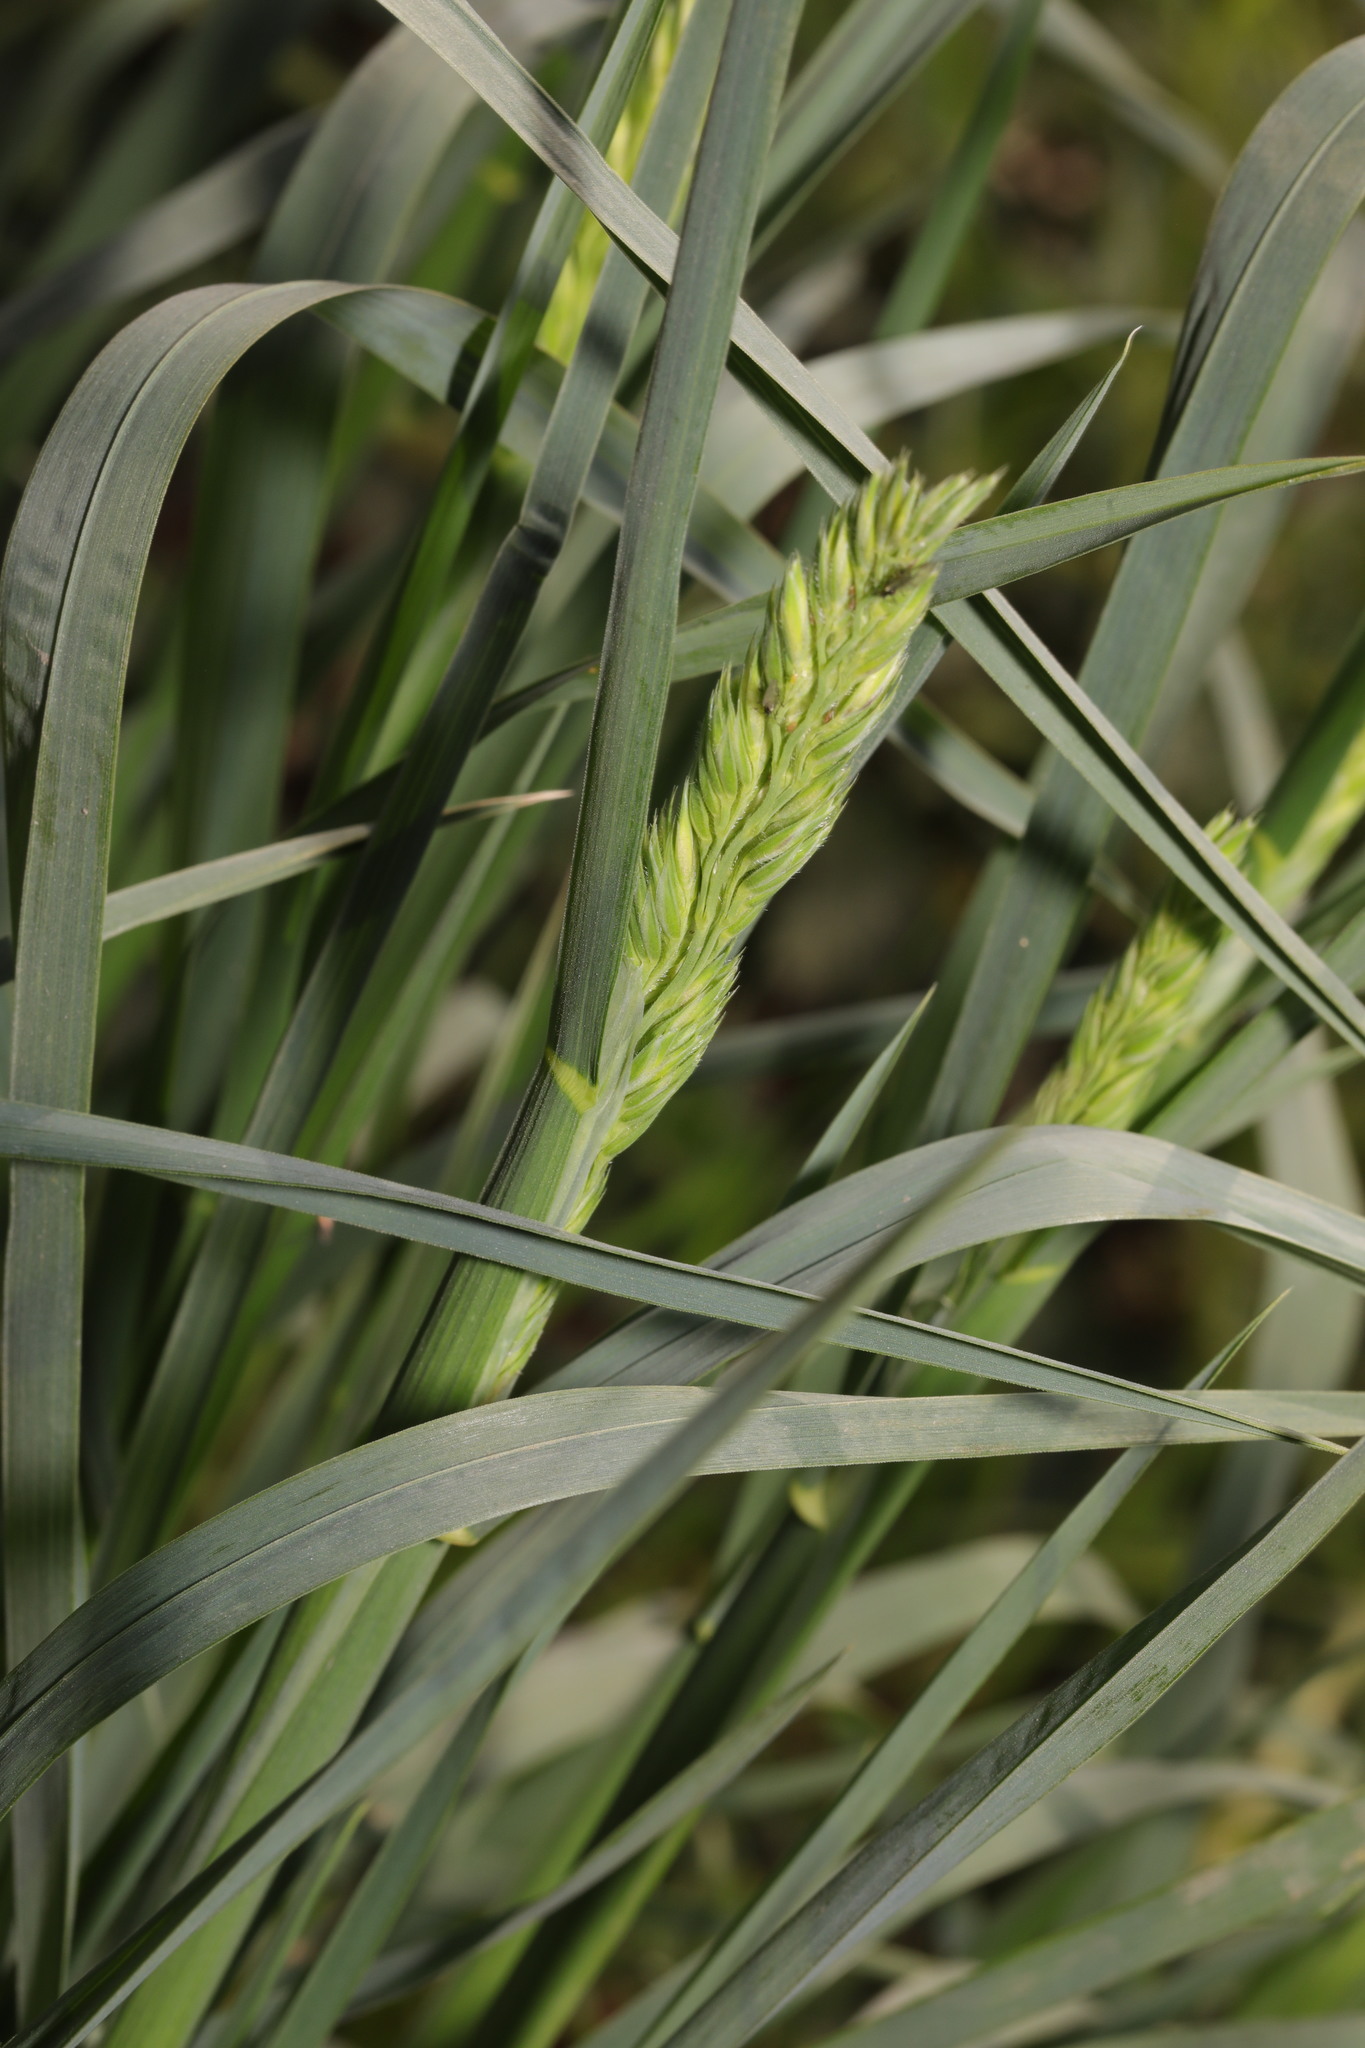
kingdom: Plantae
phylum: Tracheophyta
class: Liliopsida
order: Poales
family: Poaceae
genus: Dactylis
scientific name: Dactylis glomerata
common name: Orchardgrass
